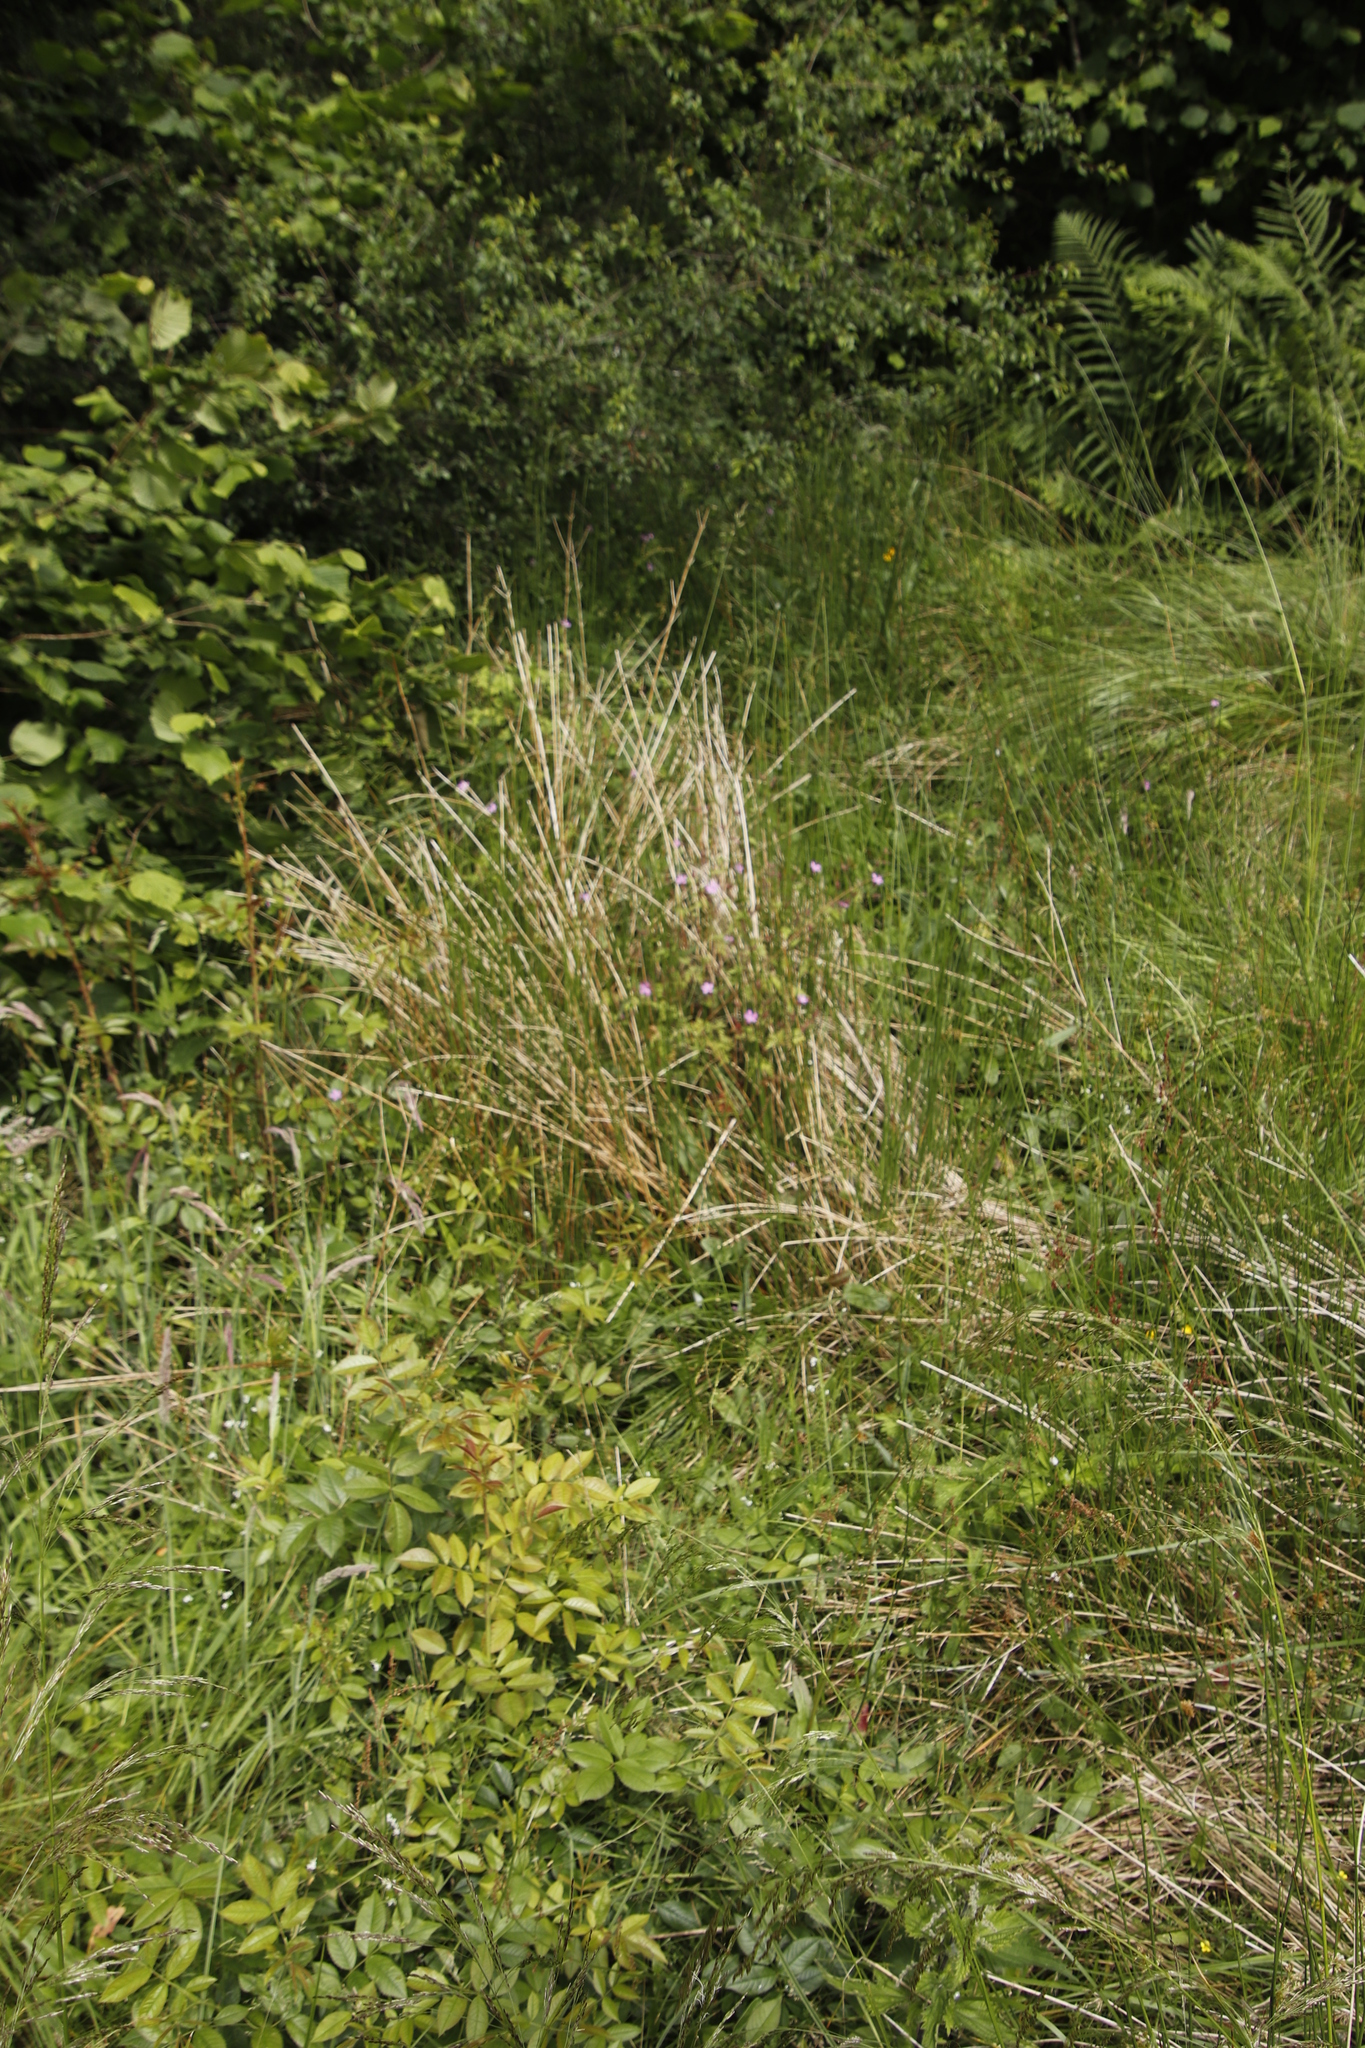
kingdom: Plantae
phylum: Tracheophyta
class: Magnoliopsida
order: Geraniales
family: Geraniaceae
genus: Geranium
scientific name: Geranium robertianum
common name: Herb-robert
